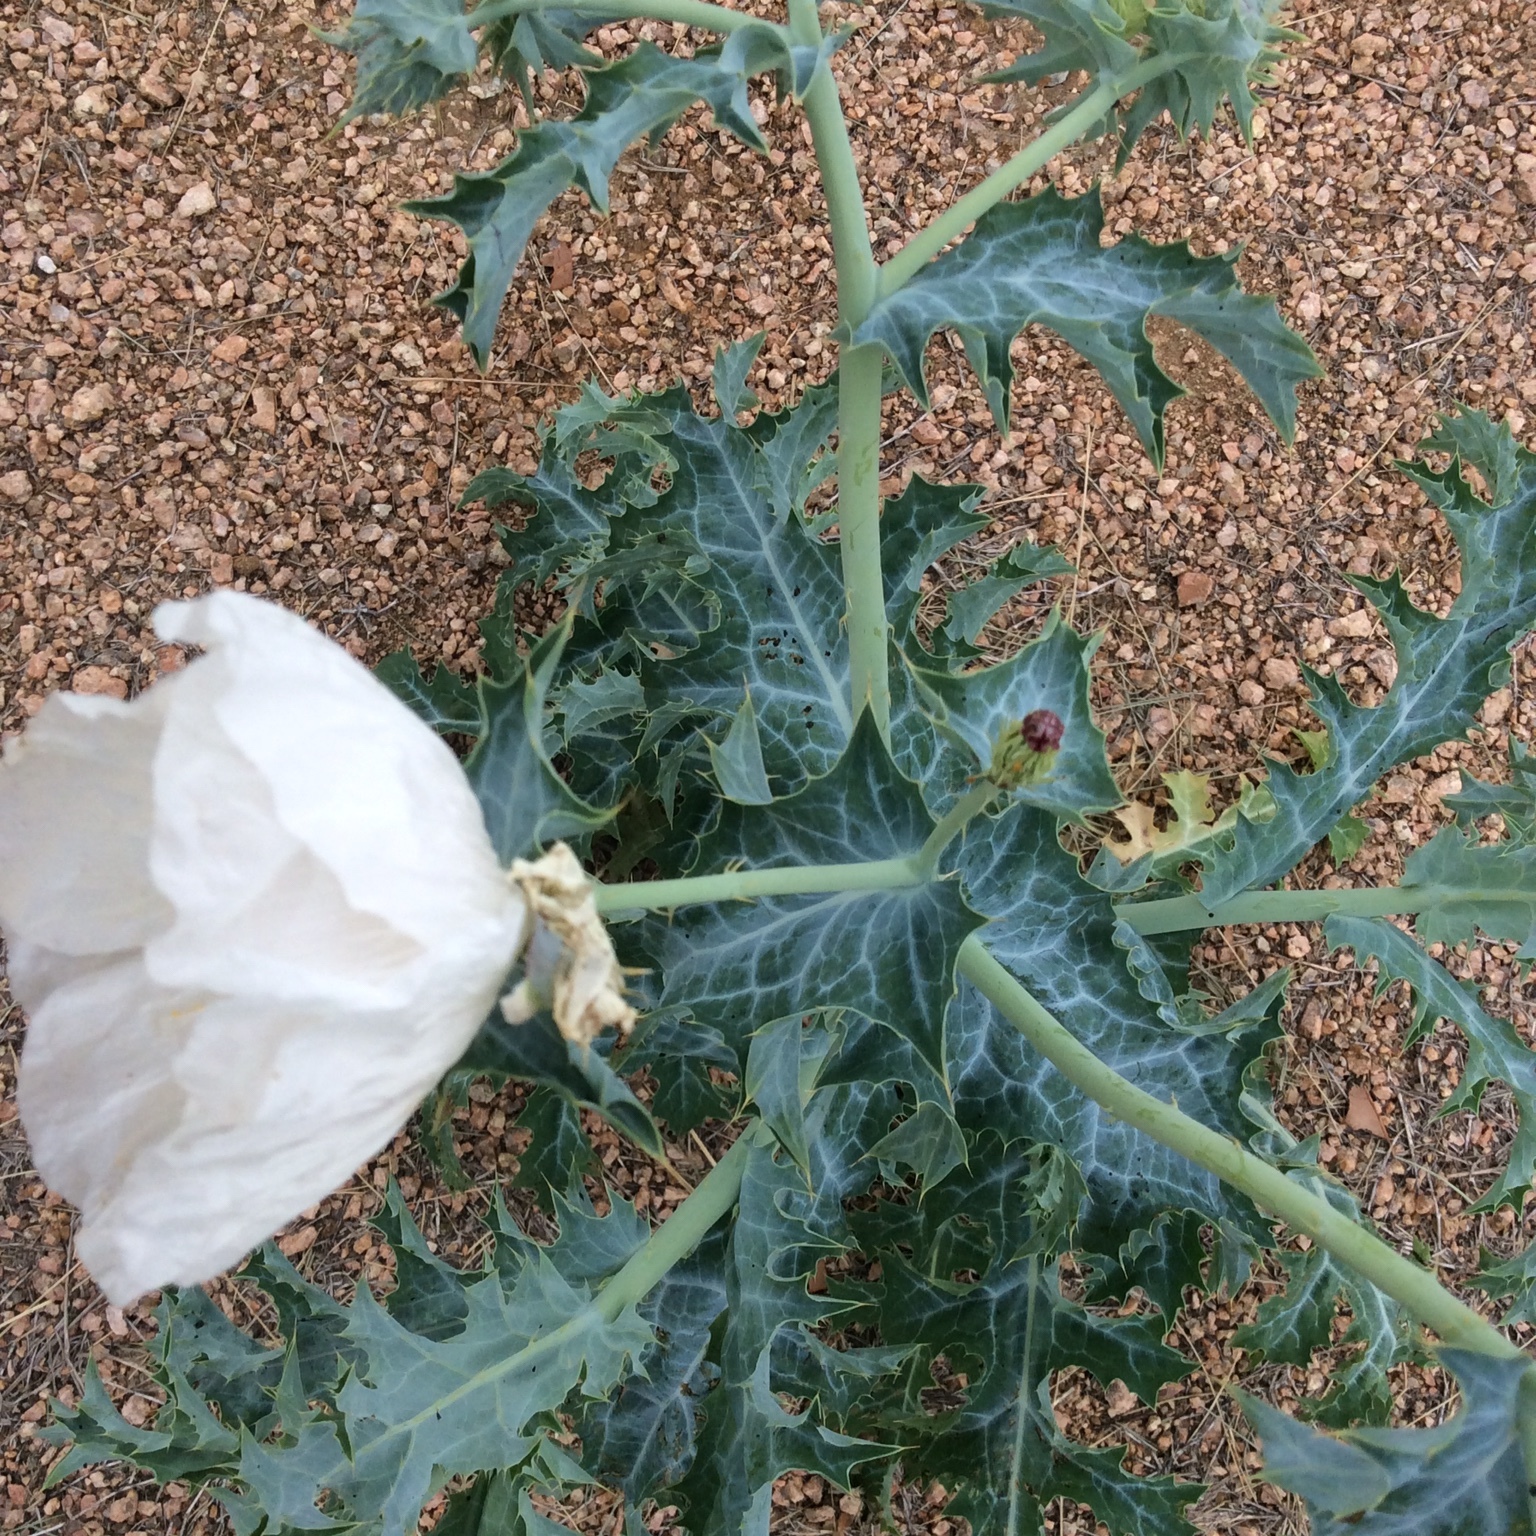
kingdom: Plantae
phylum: Tracheophyta
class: Magnoliopsida
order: Ranunculales
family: Papaveraceae
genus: Argemone
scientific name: Argemone albiflora
